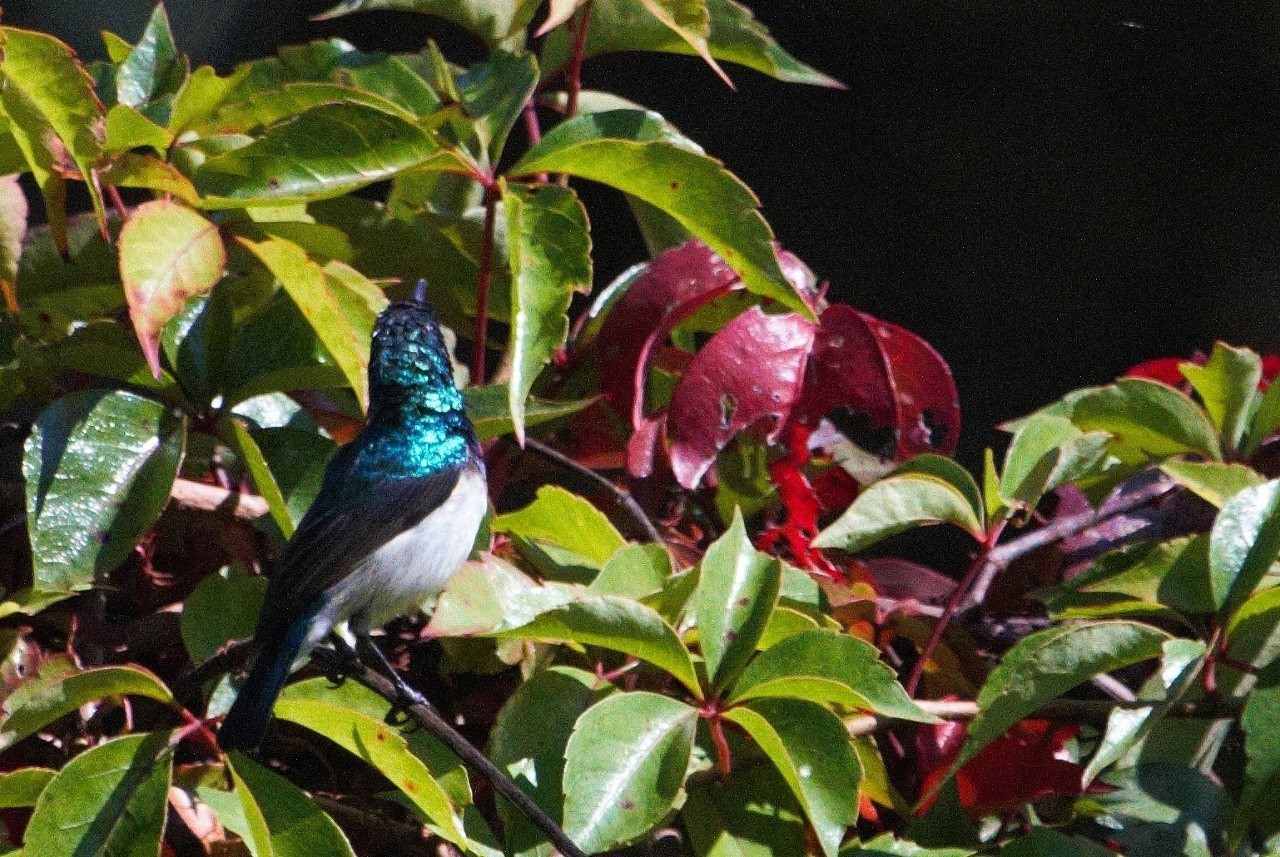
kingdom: Animalia
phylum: Chordata
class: Aves
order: Passeriformes
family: Nectariniidae
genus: Cinnyris
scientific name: Cinnyris talatala
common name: White-bellied sunbird
